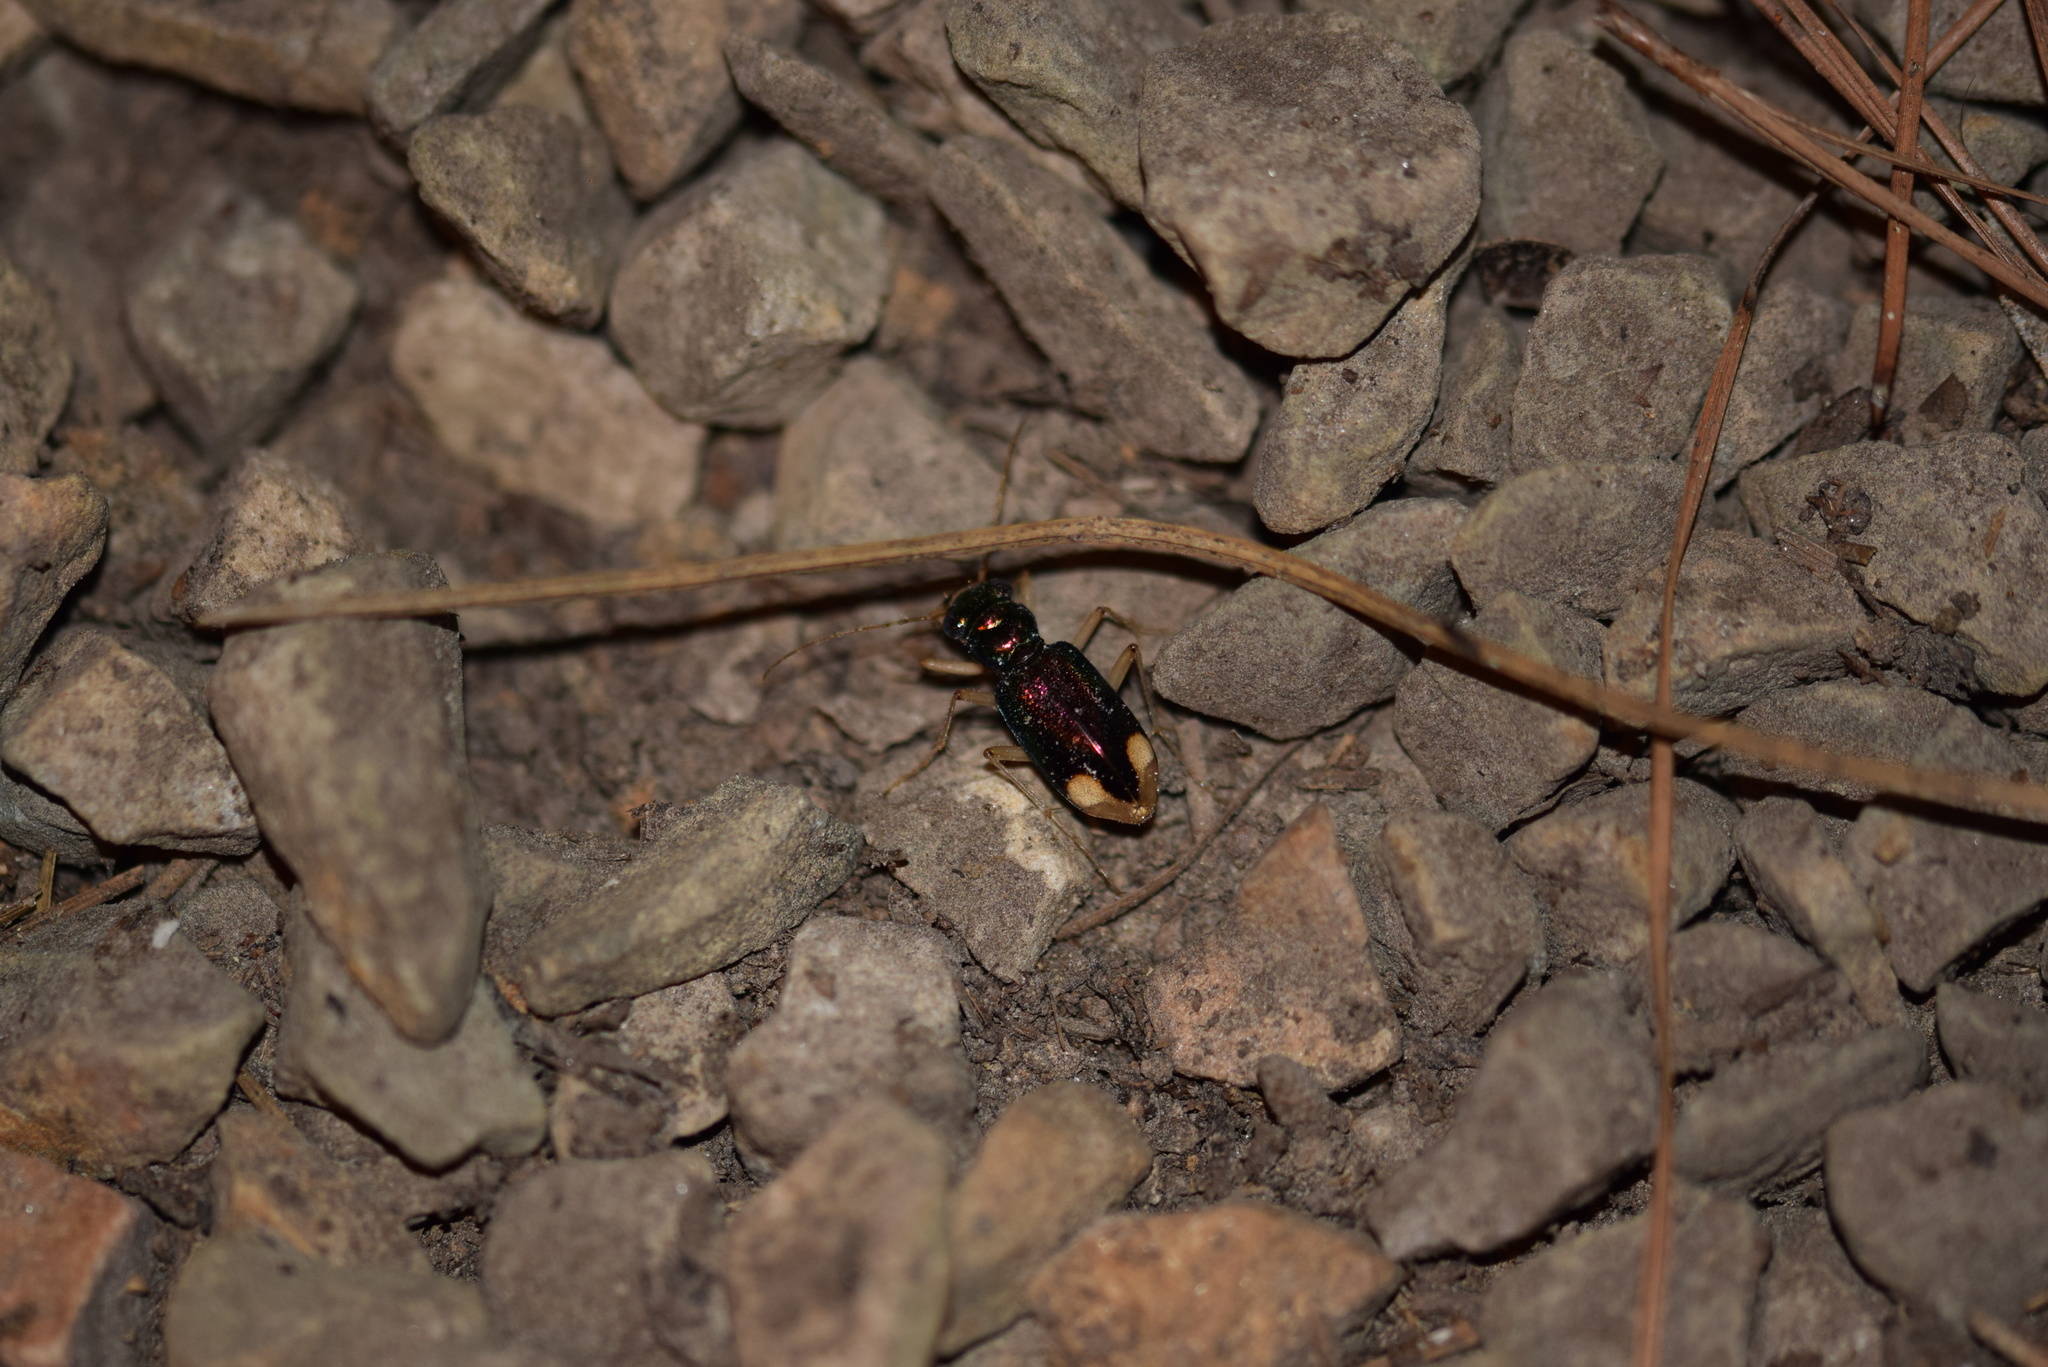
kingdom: Animalia
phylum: Arthropoda
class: Insecta
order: Coleoptera
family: Carabidae
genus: Tetracha
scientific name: Tetracha carolina
